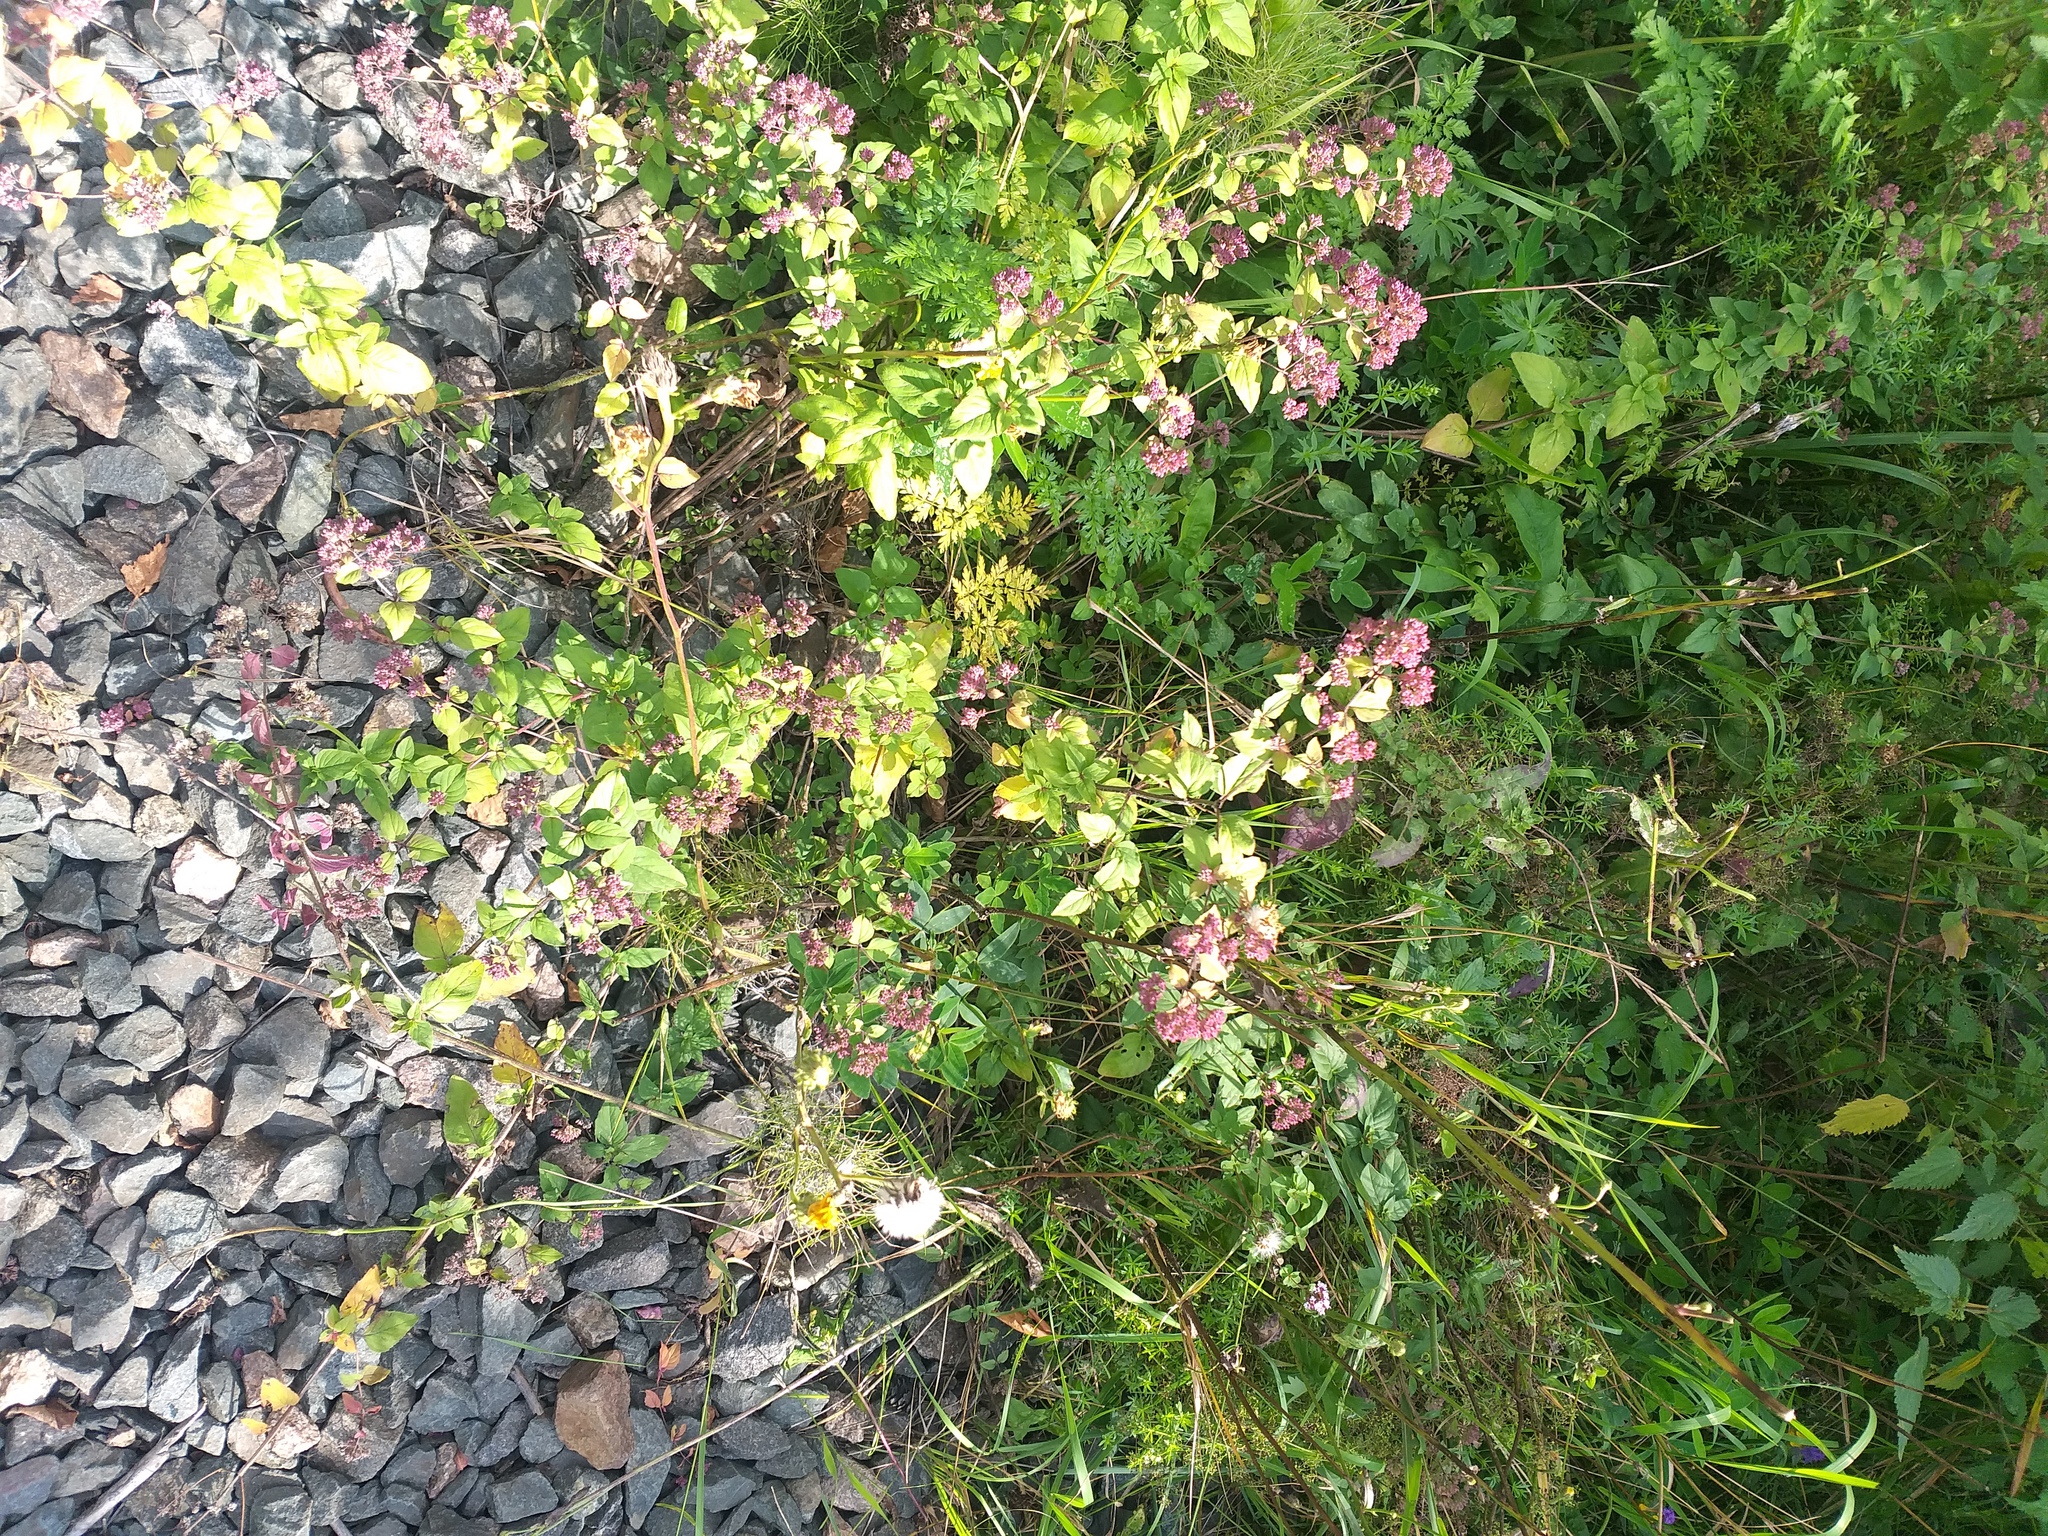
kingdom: Plantae
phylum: Tracheophyta
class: Magnoliopsida
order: Lamiales
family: Lamiaceae
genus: Origanum
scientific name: Origanum vulgare
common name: Wild marjoram
